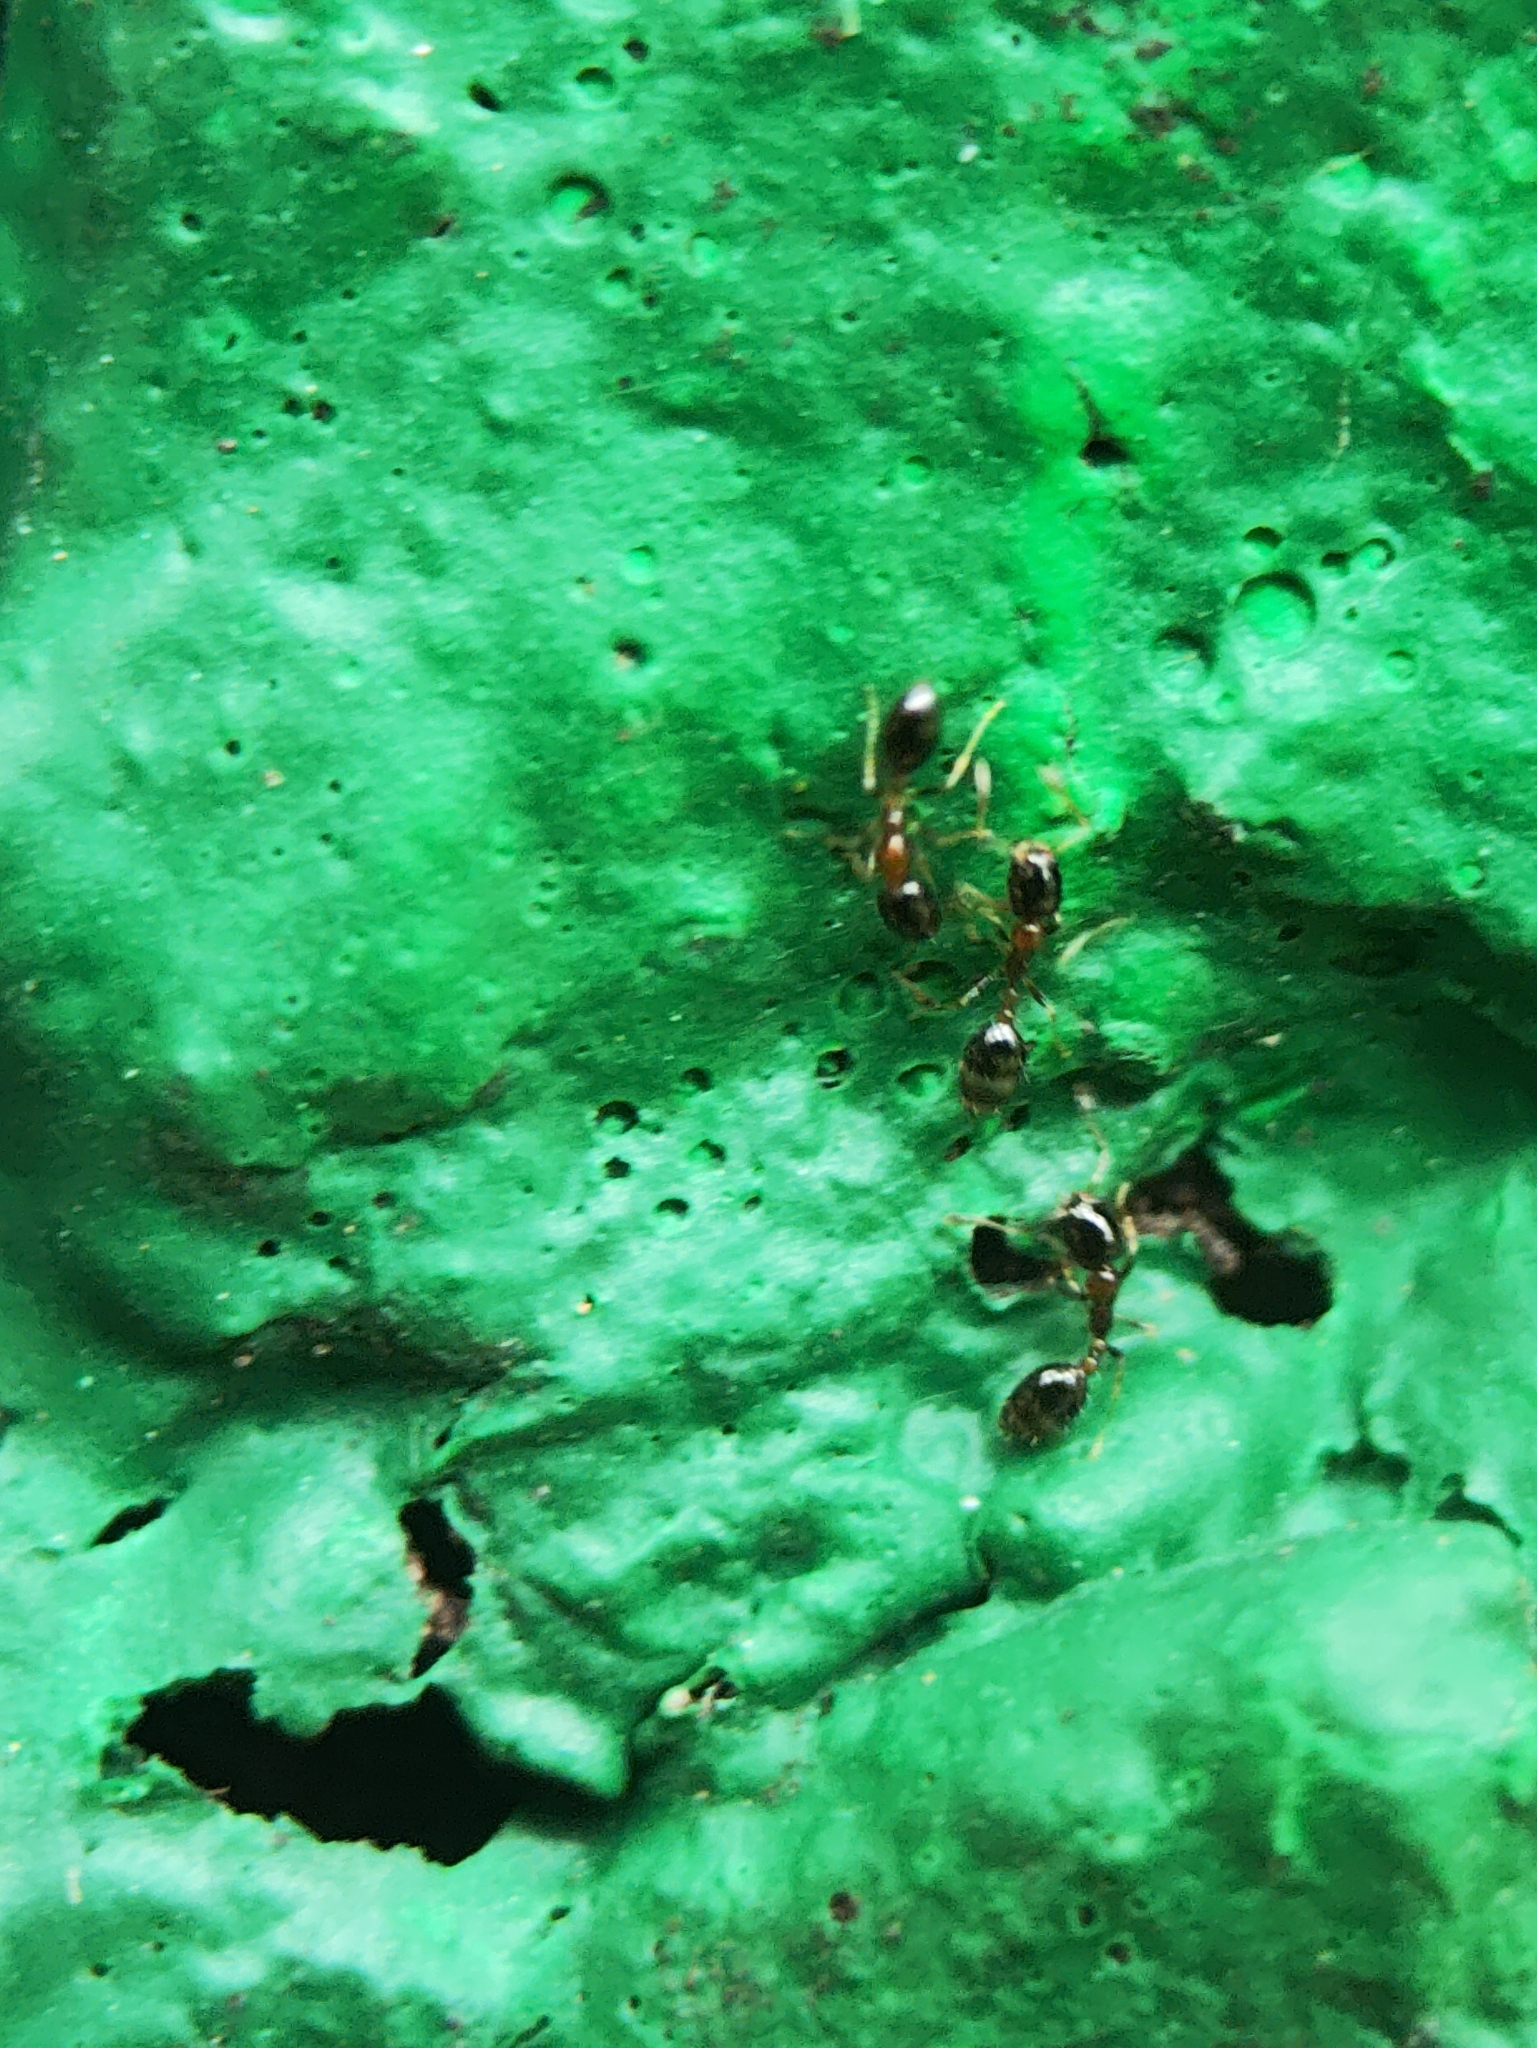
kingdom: Animalia
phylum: Arthropoda
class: Insecta
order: Hymenoptera
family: Formicidae
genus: Monomorium
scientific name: Monomorium floricola
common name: Bicolored trailing ant
